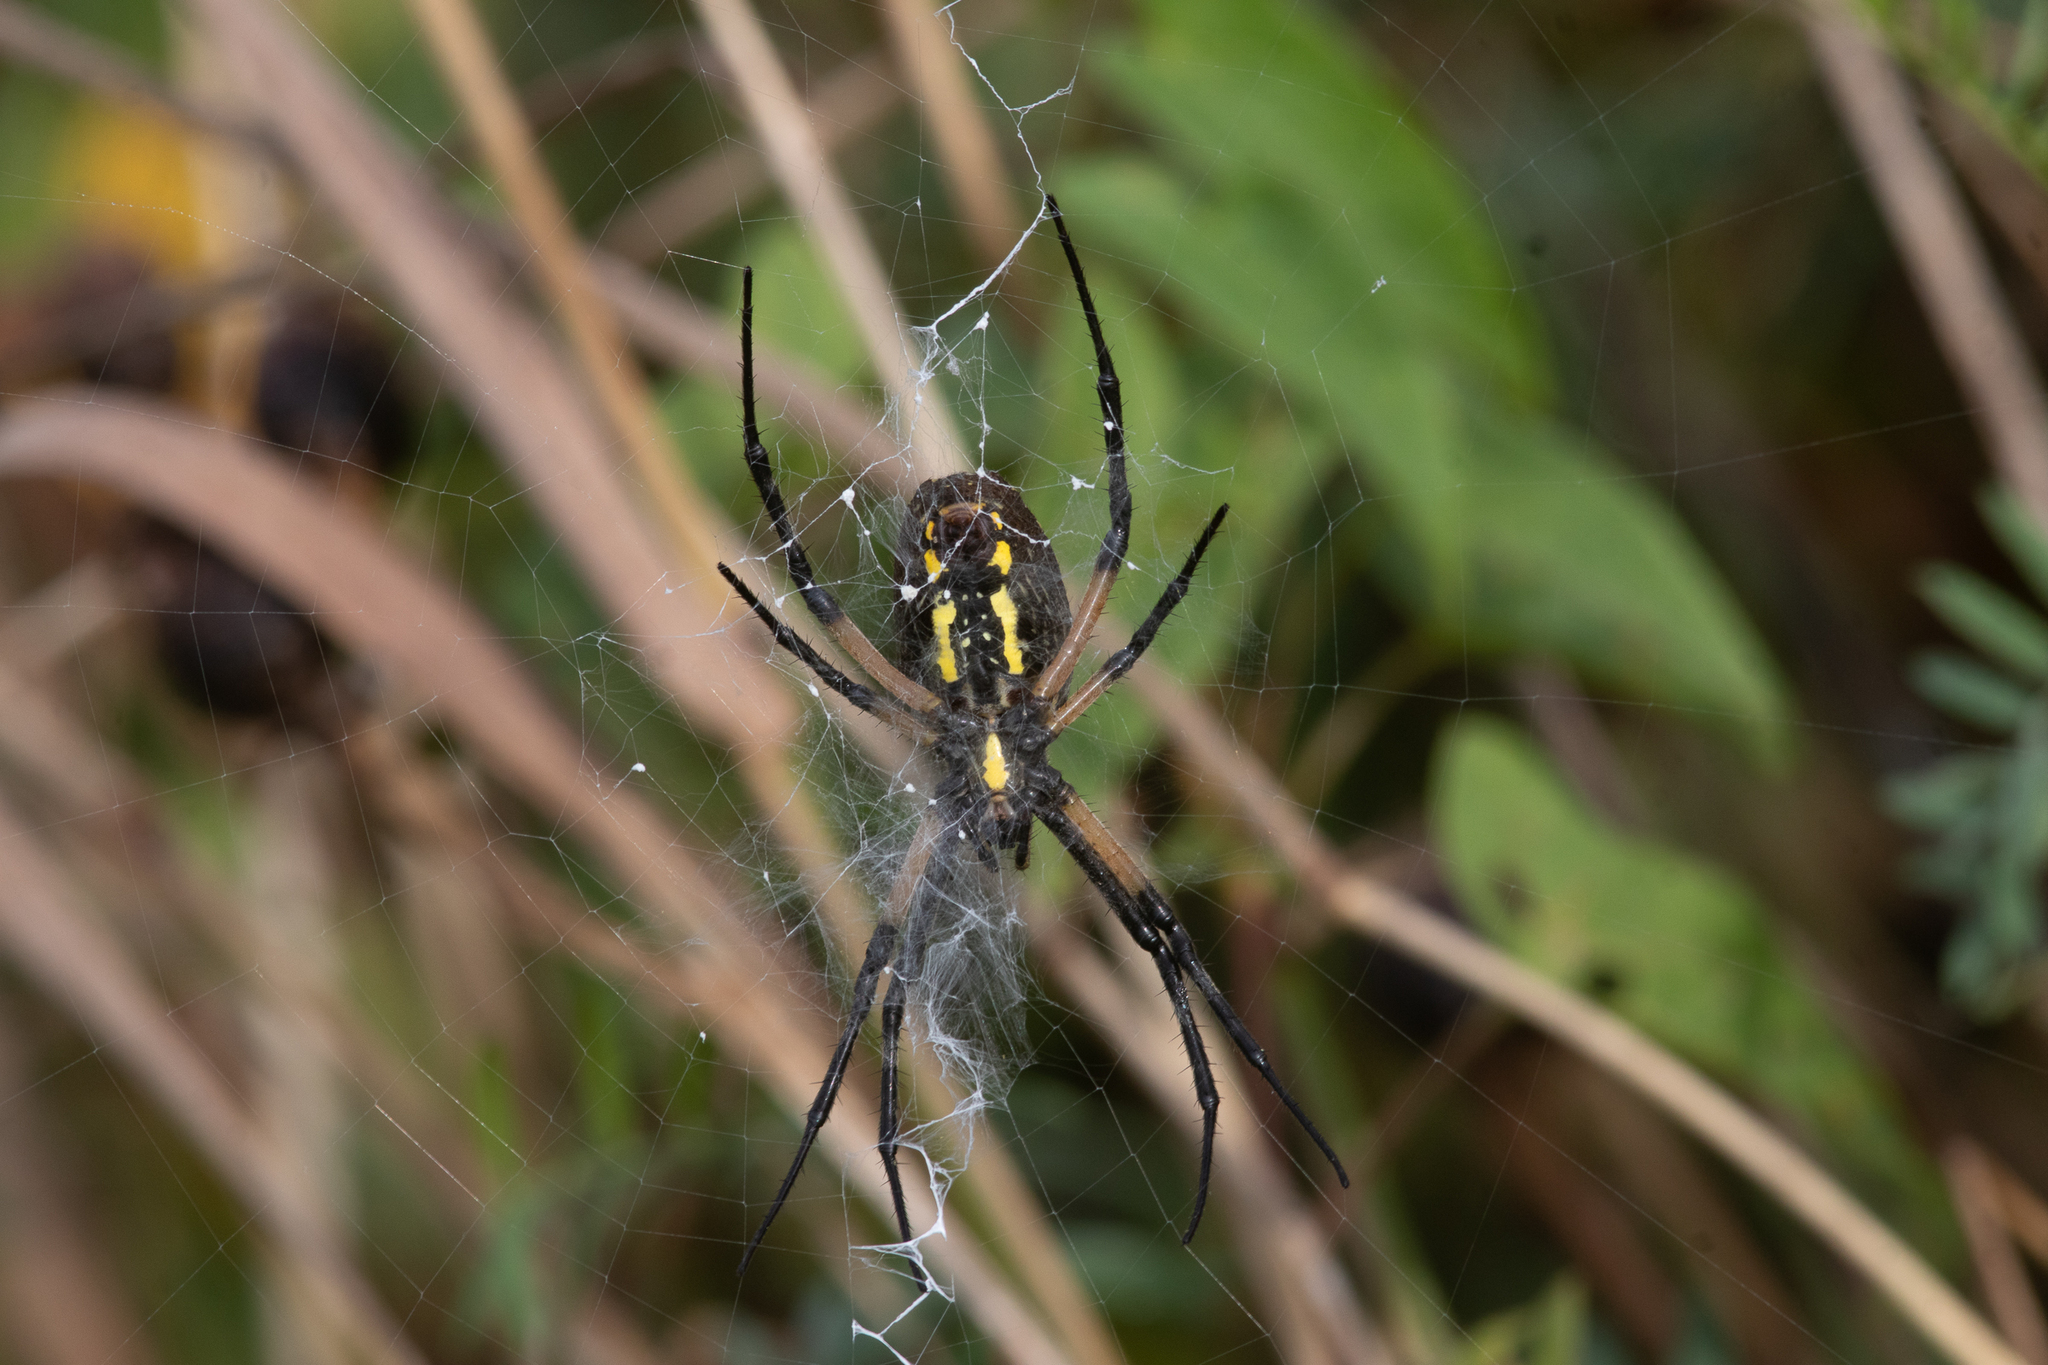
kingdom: Animalia
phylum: Arthropoda
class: Arachnida
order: Araneae
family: Araneidae
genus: Argiope
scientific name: Argiope aurantia
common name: Orb weavers
